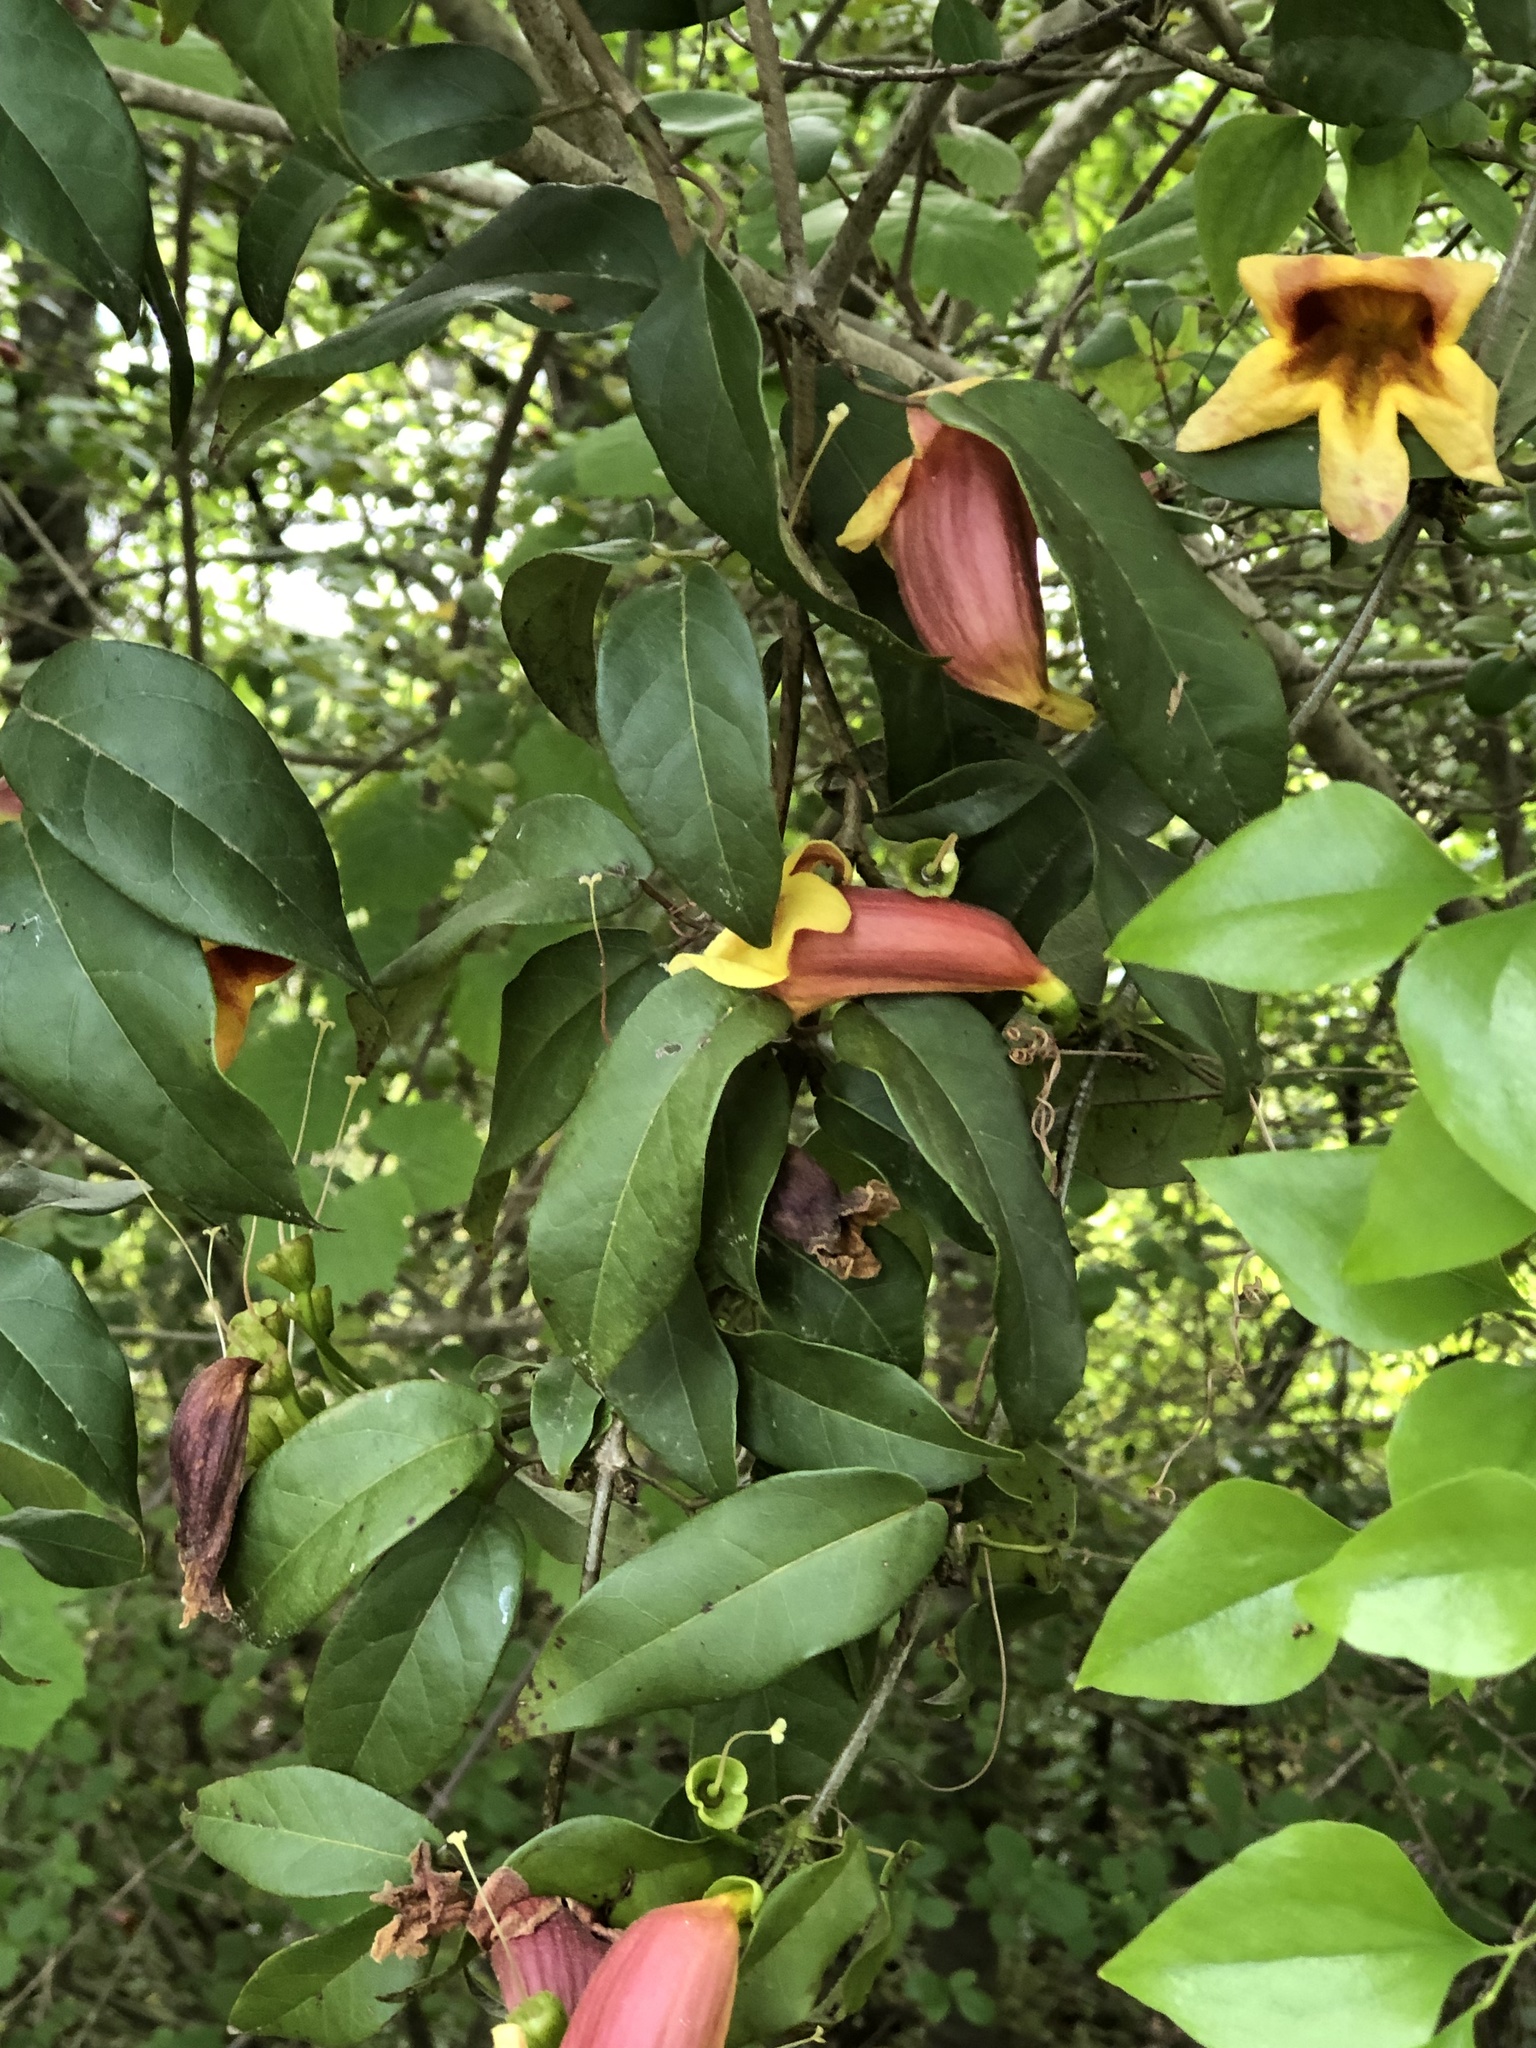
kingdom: Plantae
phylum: Tracheophyta
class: Magnoliopsida
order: Lamiales
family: Bignoniaceae
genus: Bignonia
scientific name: Bignonia capreolata
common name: Crossvine
